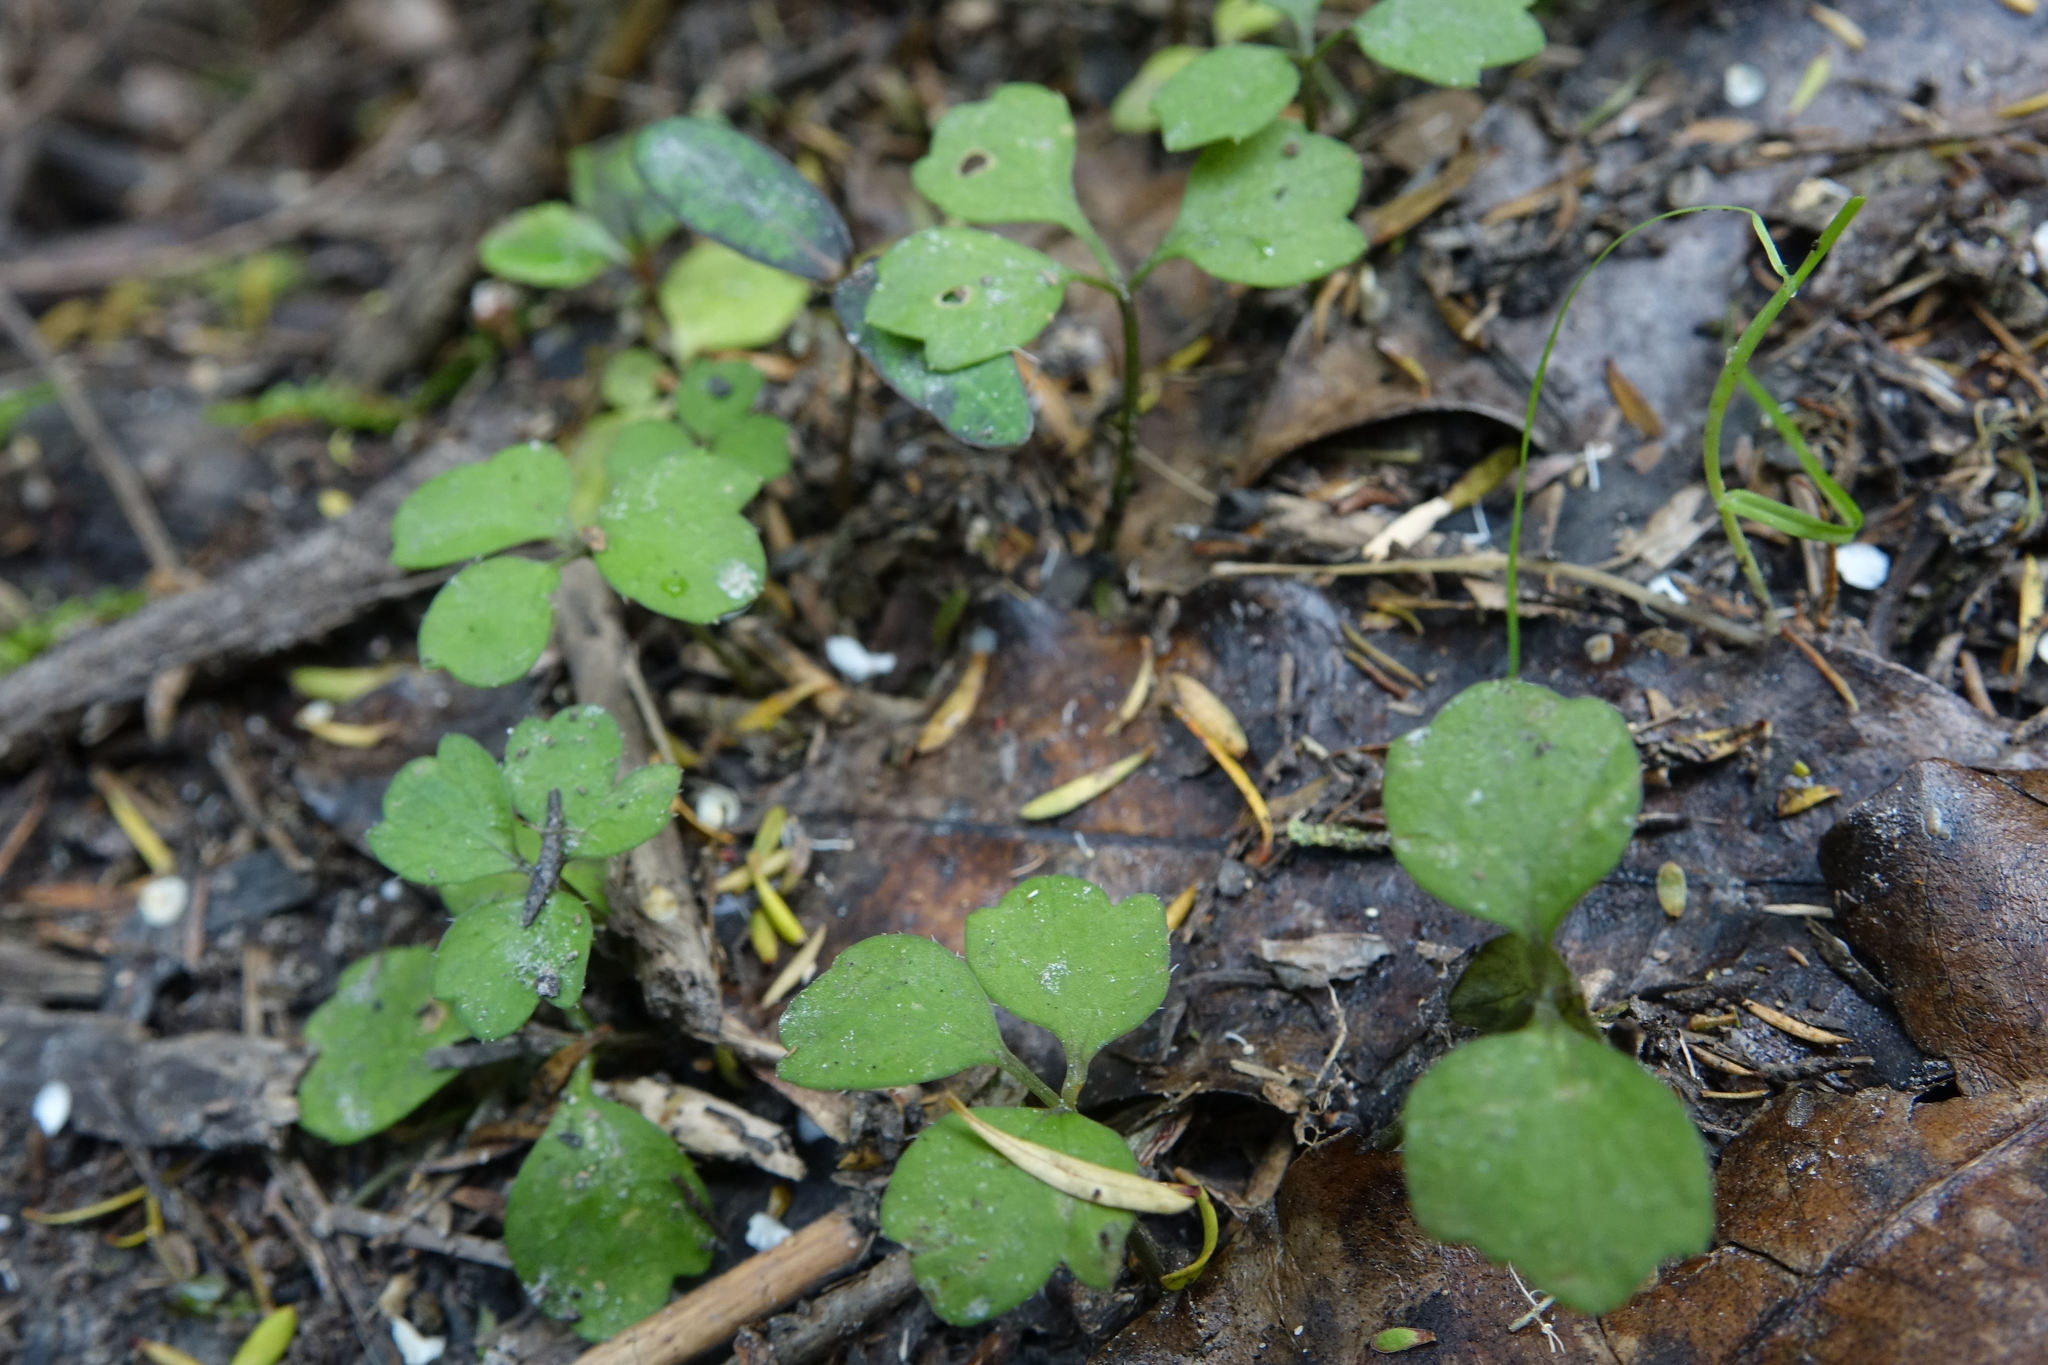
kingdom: Plantae
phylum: Tracheophyta
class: Magnoliopsida
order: Apiales
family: Apiaceae
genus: Azorella
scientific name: Azorella hookeri
